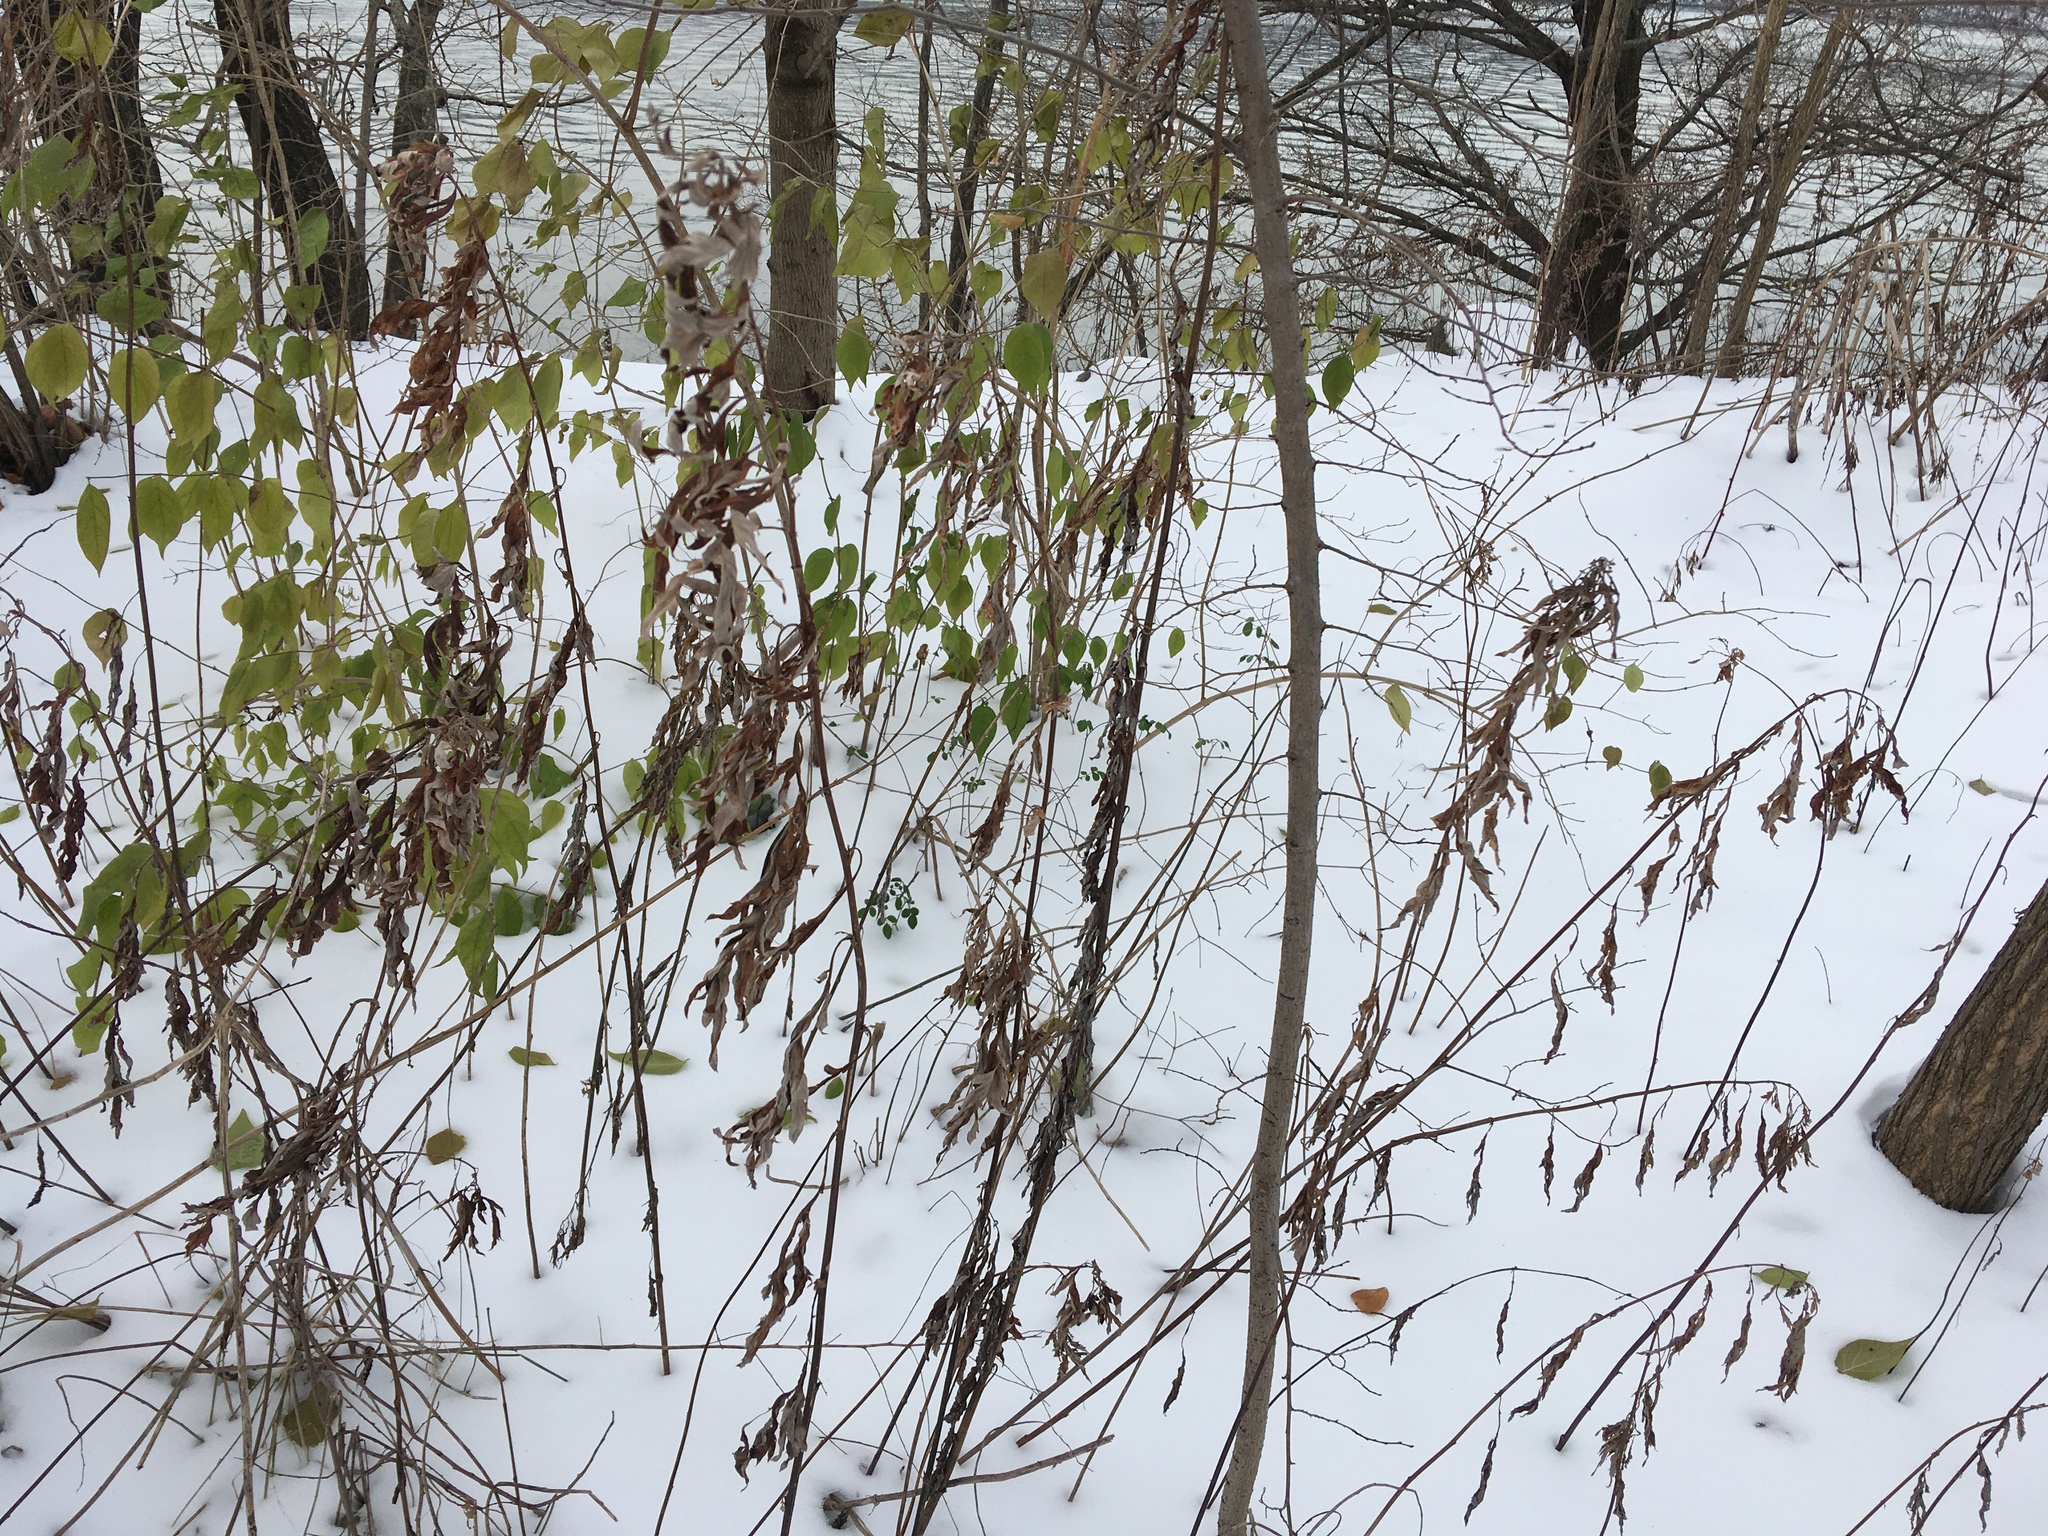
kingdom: Plantae
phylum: Tracheophyta
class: Magnoliopsida
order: Asterales
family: Asteraceae
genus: Artemisia
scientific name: Artemisia vulgaris
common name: Mugwort
